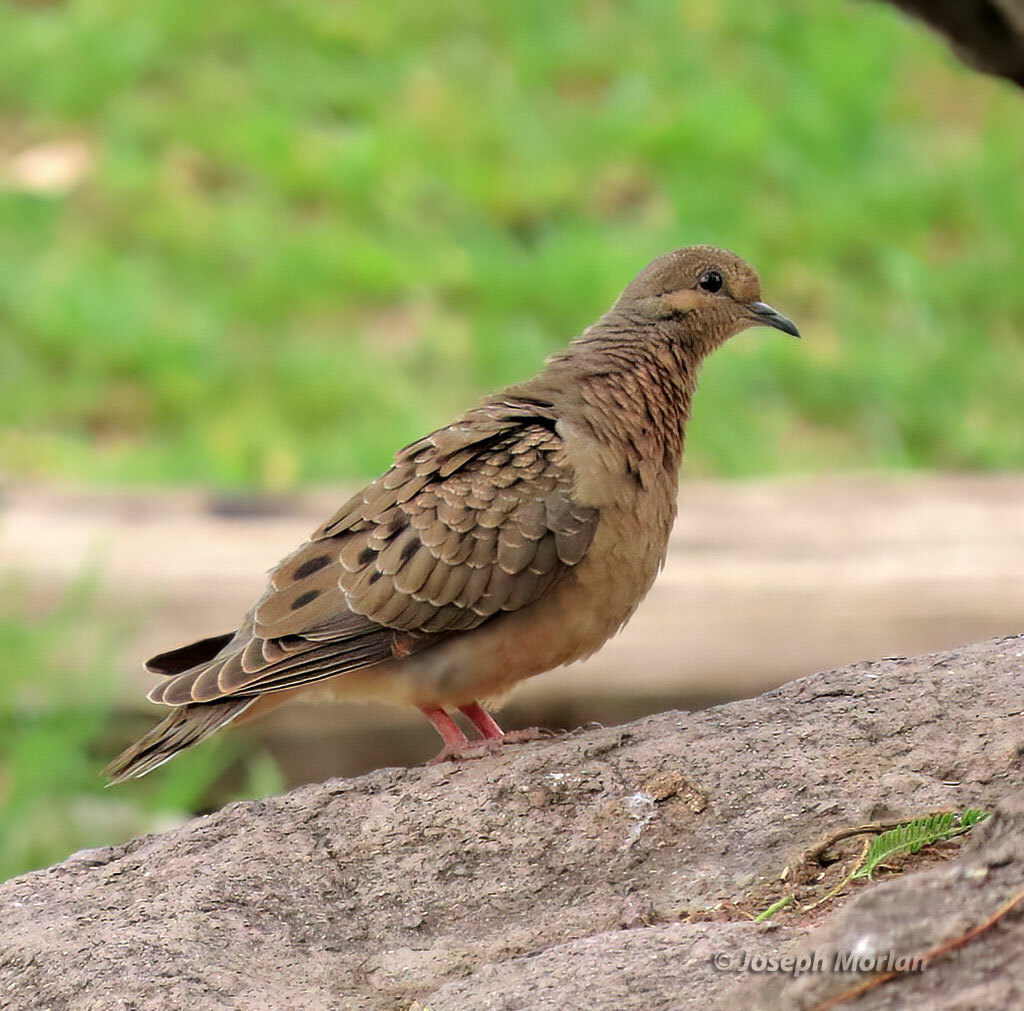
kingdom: Animalia
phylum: Chordata
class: Aves
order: Columbiformes
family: Columbidae
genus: Zenaida
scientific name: Zenaida auriculata
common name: Eared dove
